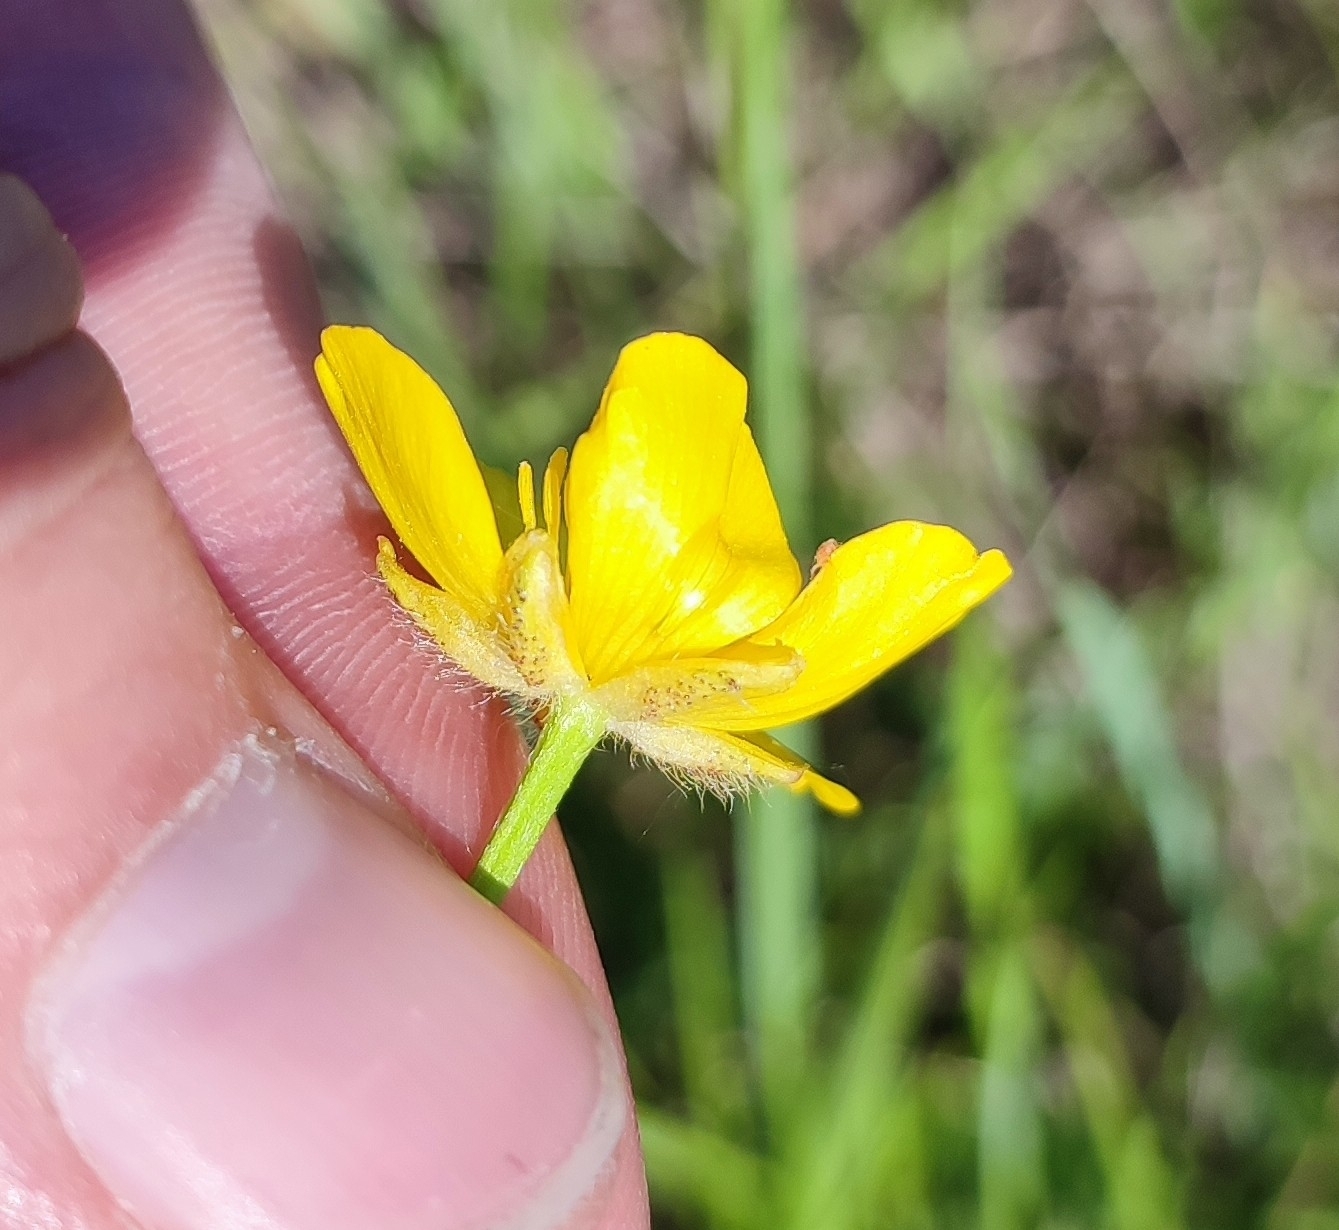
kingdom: Plantae
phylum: Tracheophyta
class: Magnoliopsida
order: Ranunculales
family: Ranunculaceae
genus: Ranunculus
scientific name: Ranunculus polyanthemos
